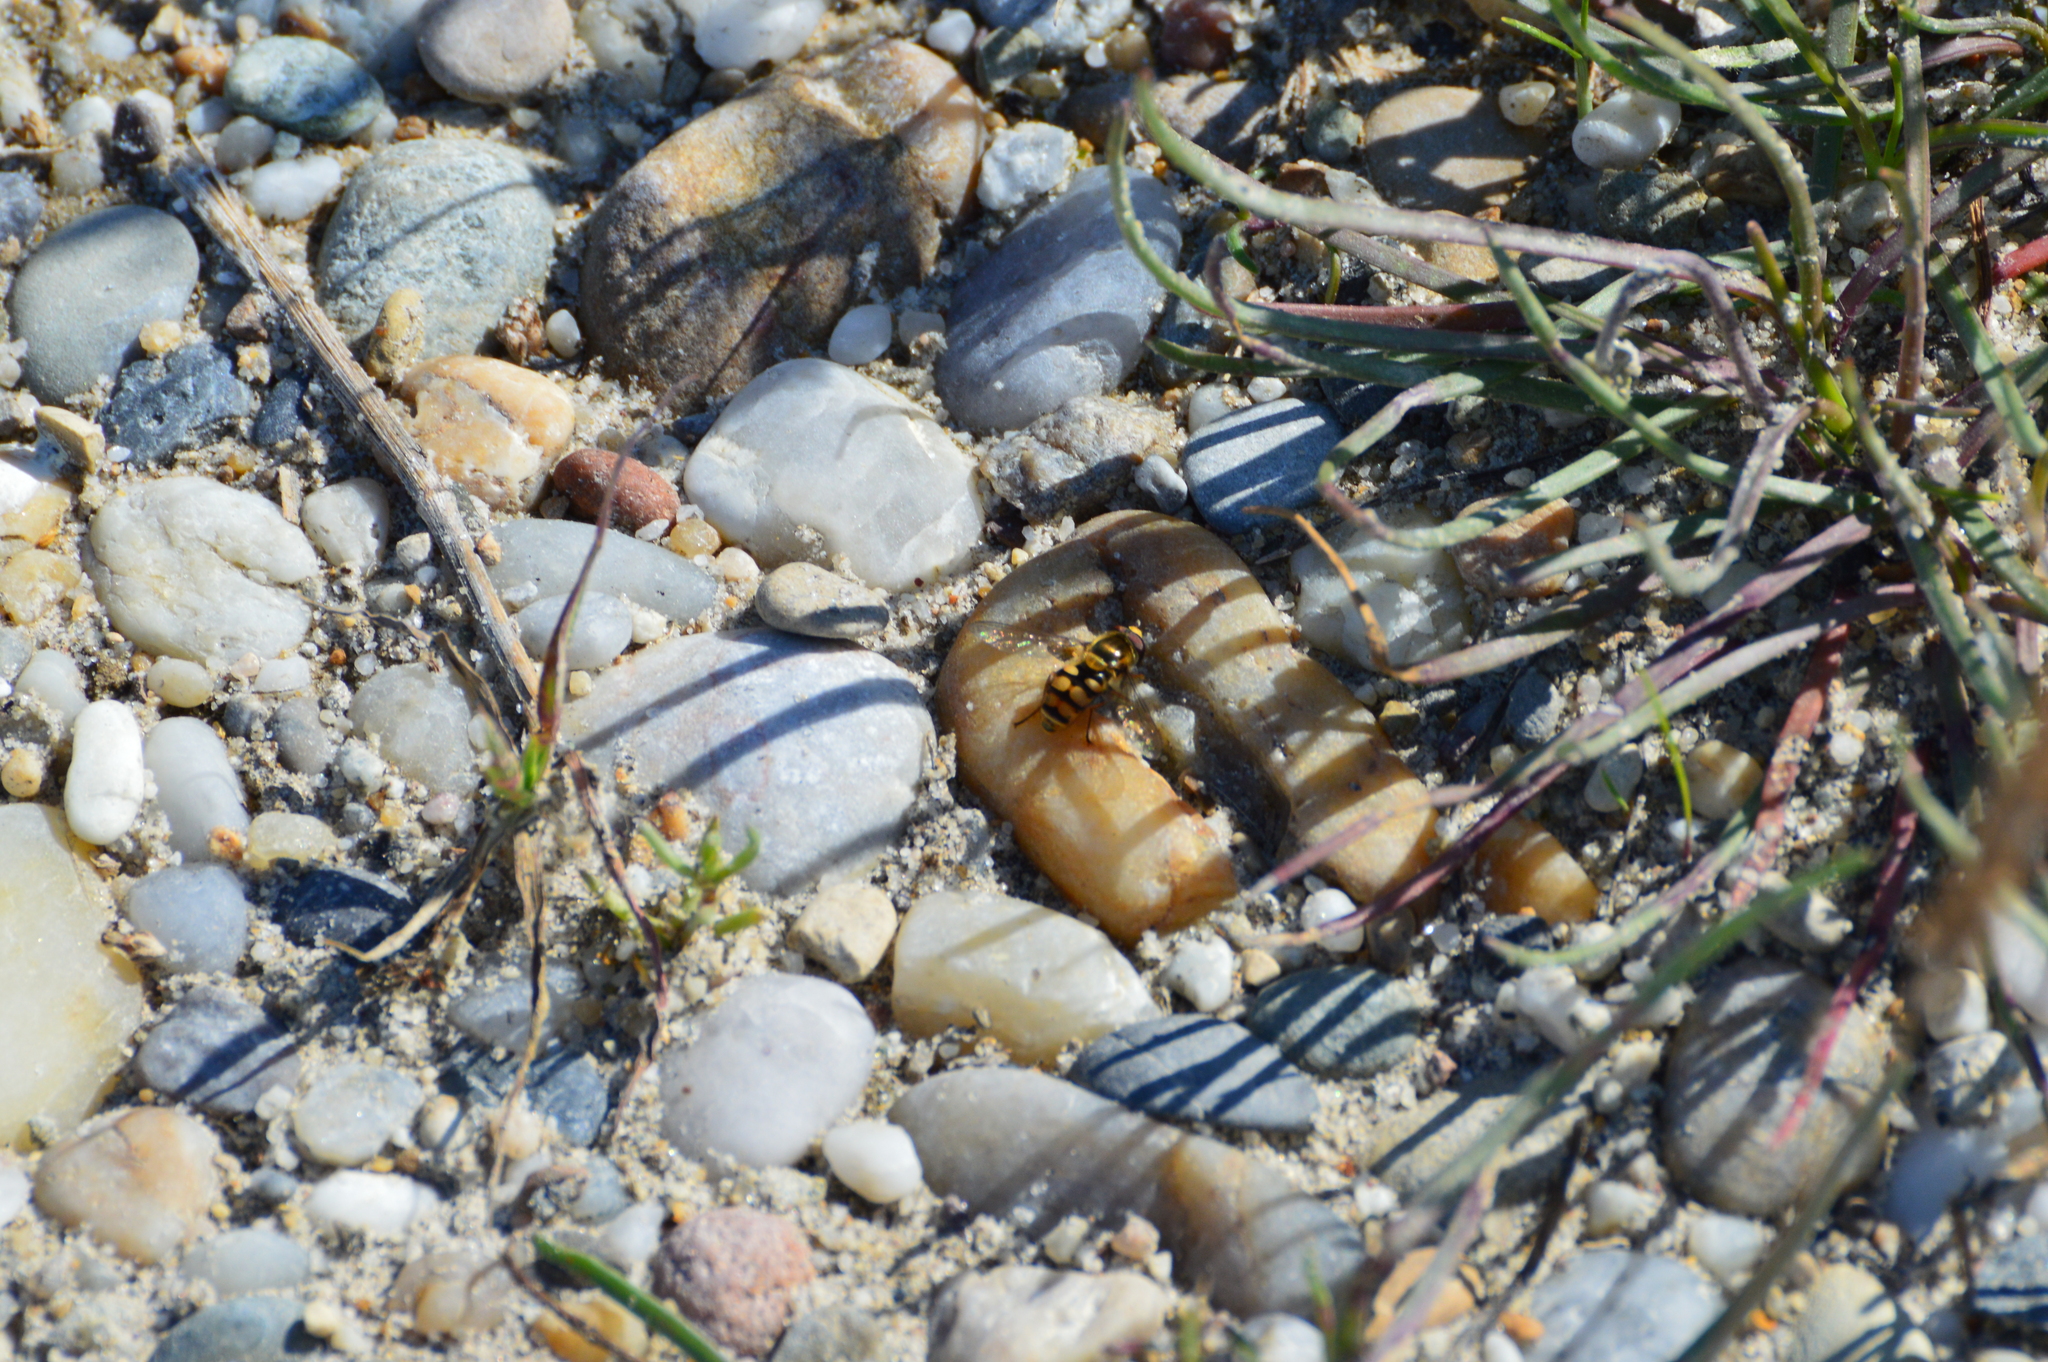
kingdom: Animalia
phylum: Arthropoda
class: Insecta
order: Diptera
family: Syrphidae
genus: Eupeodes
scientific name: Eupeodes corollae
